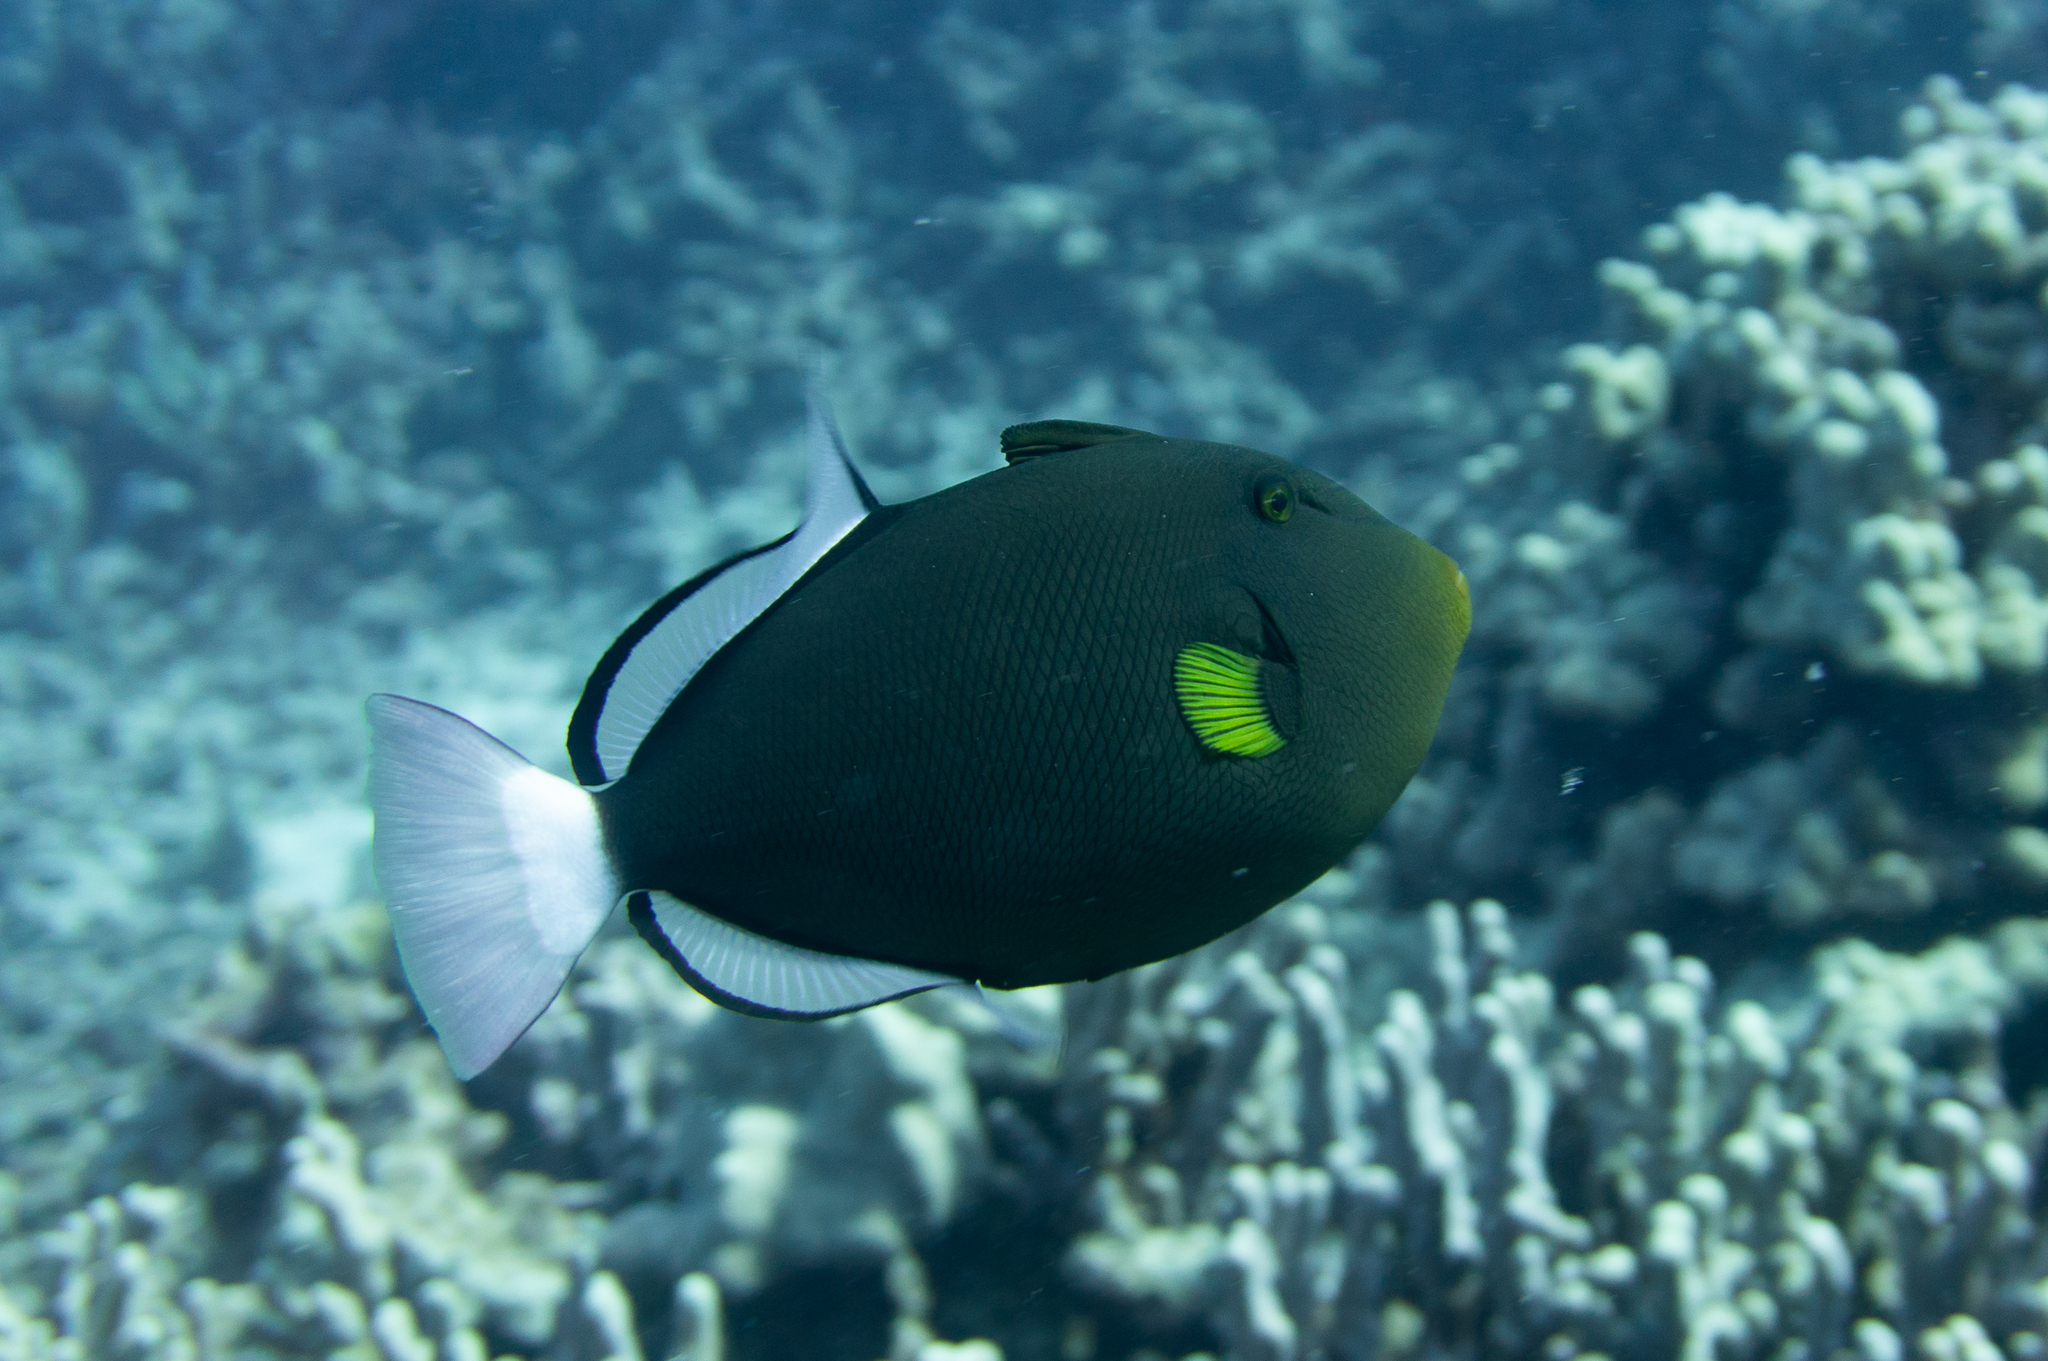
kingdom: Animalia
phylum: Chordata
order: Tetraodontiformes
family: Balistidae
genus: Melichthys
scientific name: Melichthys vidua
